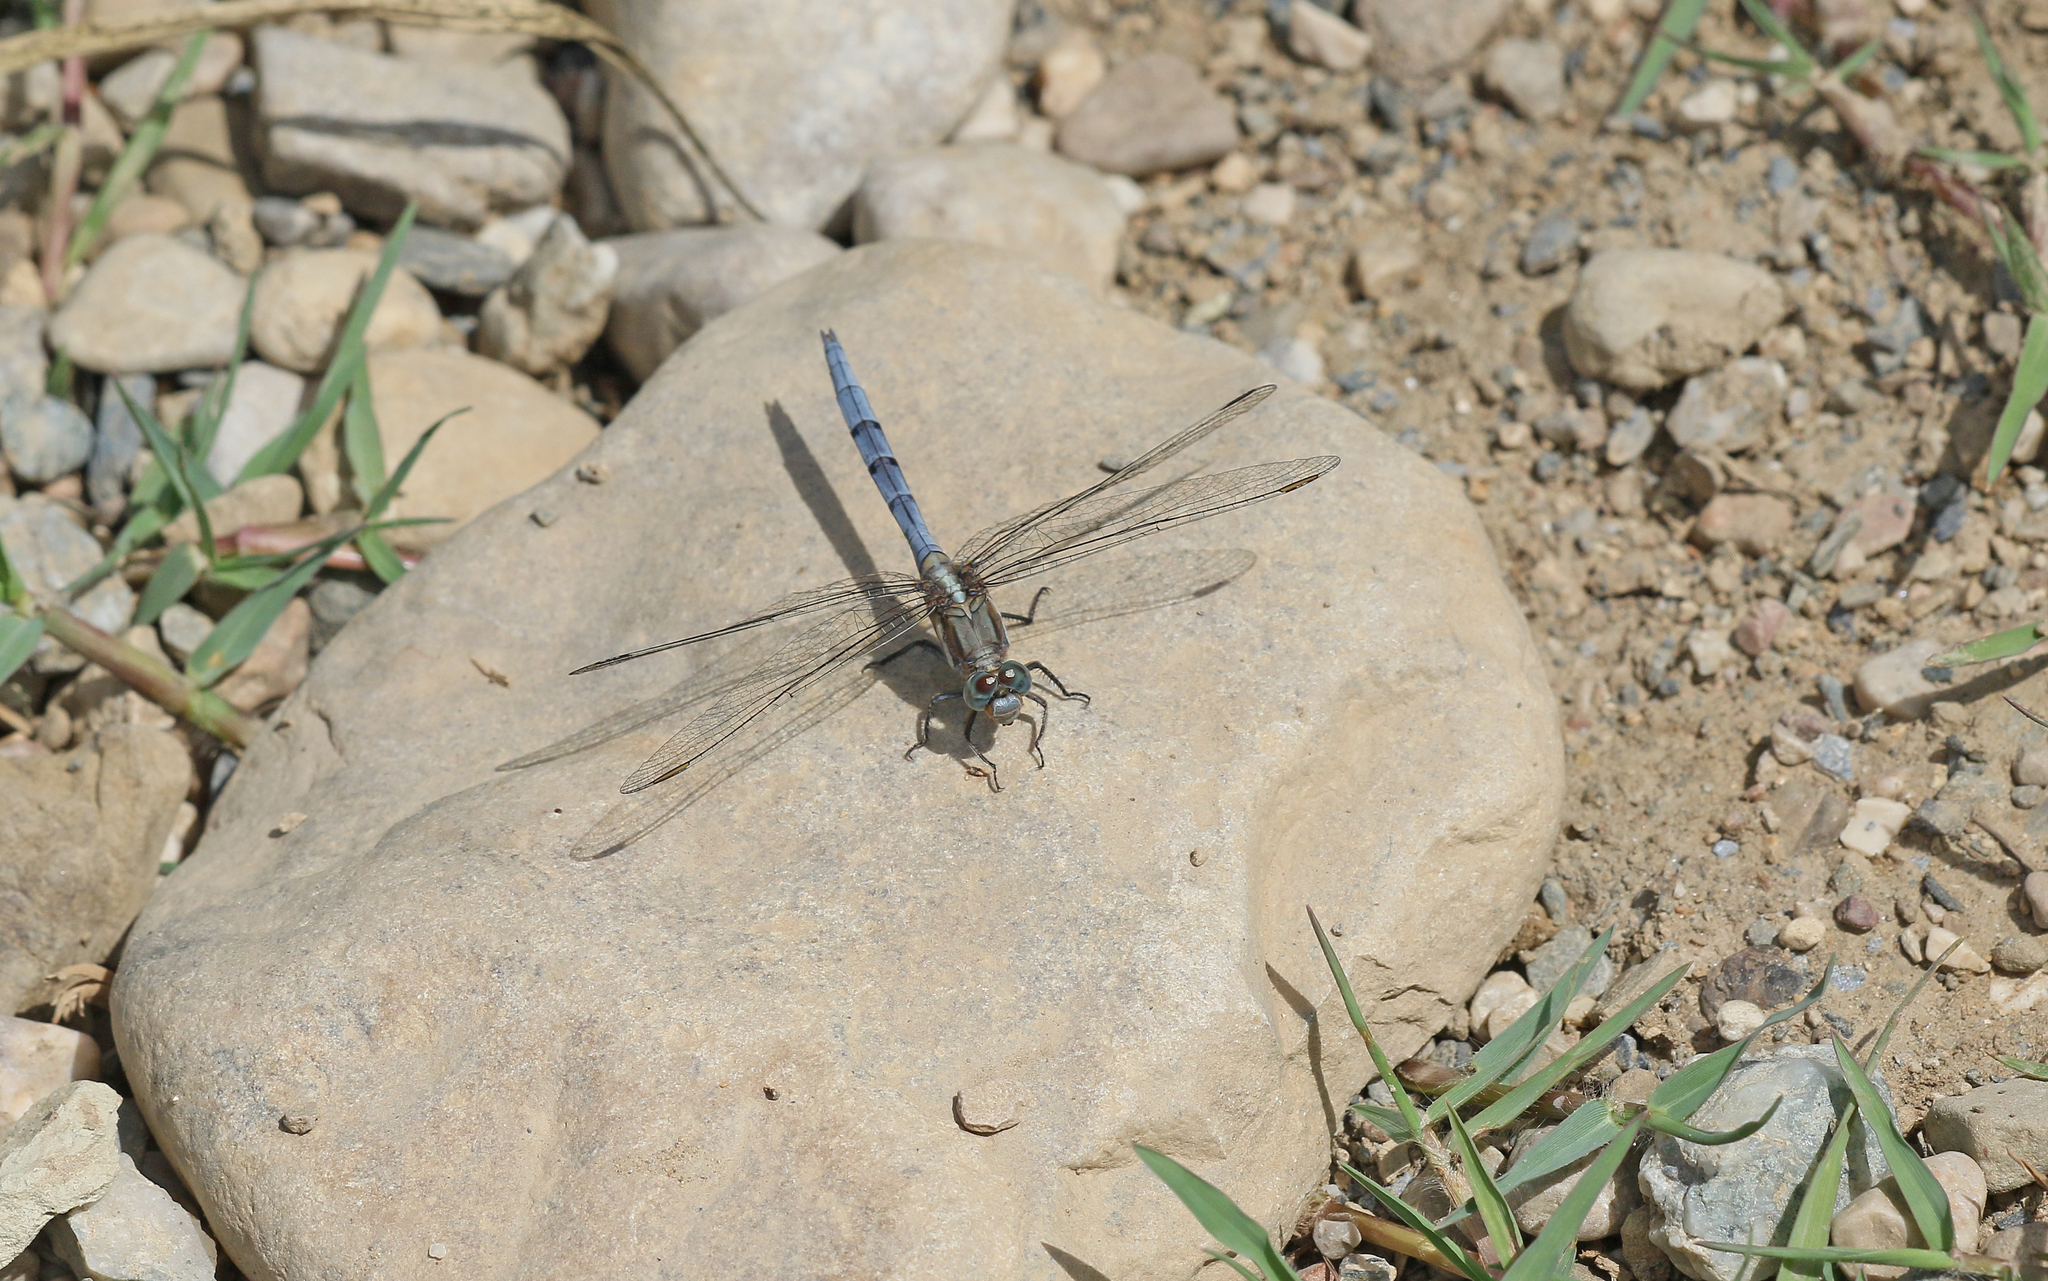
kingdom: Animalia
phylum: Arthropoda
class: Insecta
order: Odonata
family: Libellulidae
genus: Orthetrum
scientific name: Orthetrum chrysostigma
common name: Epaulet skimmer
